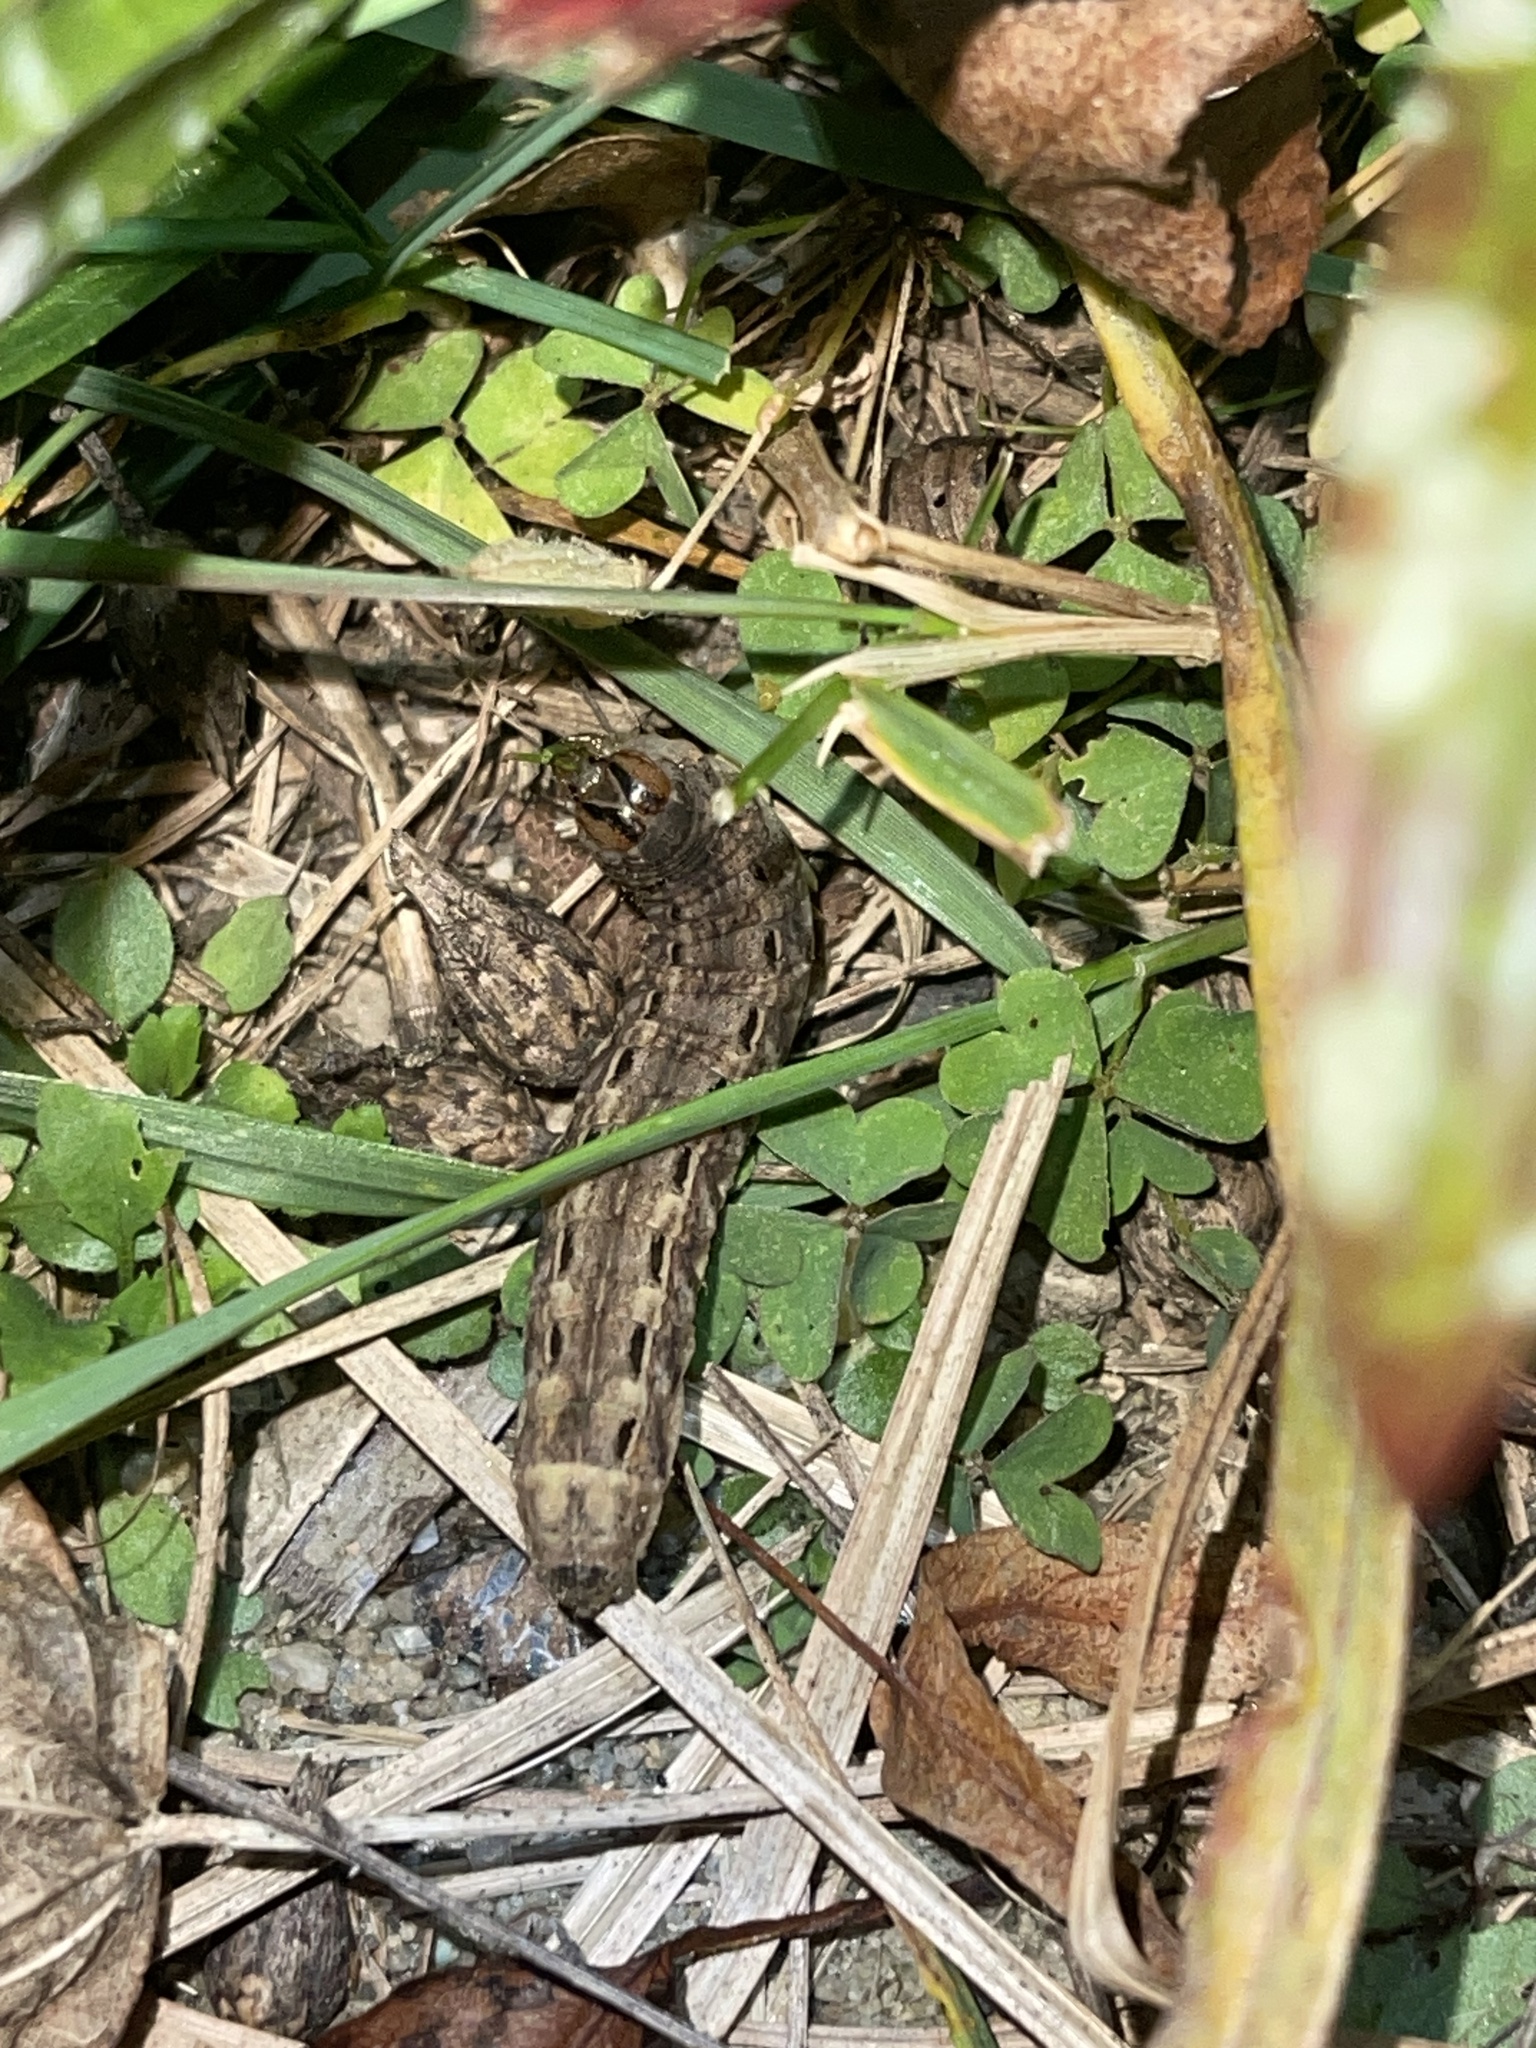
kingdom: Animalia
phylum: Arthropoda
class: Insecta
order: Lepidoptera
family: Noctuidae
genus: Noctua
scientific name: Noctua pronuba
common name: Large yellow underwing
